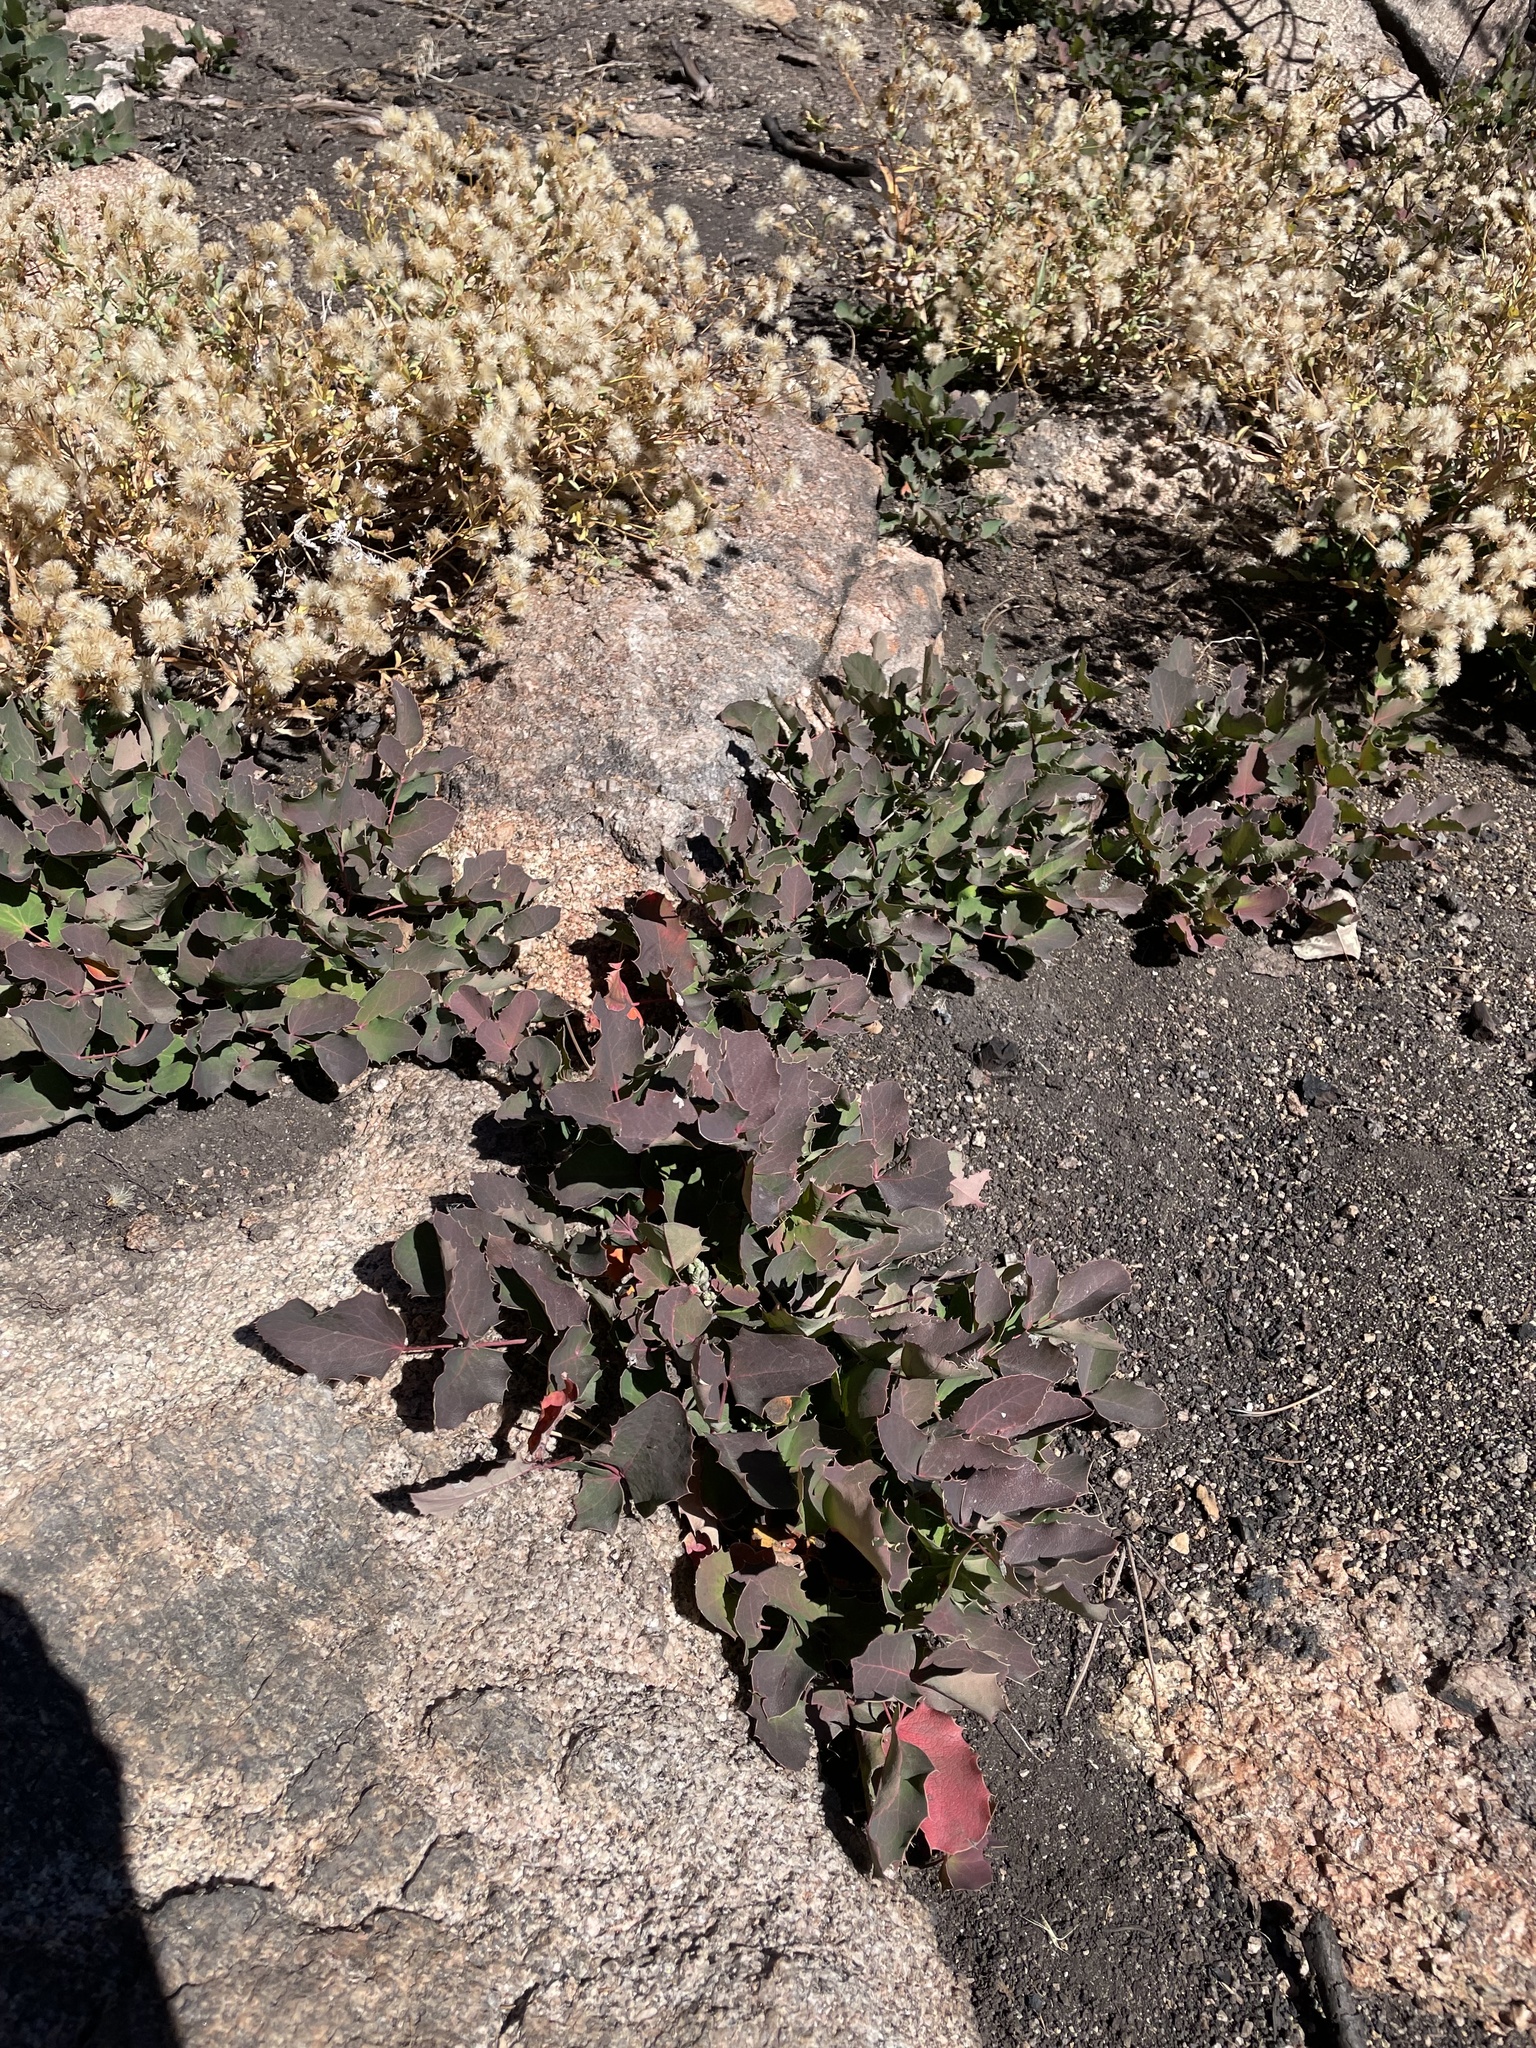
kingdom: Plantae
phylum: Tracheophyta
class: Magnoliopsida
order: Ranunculales
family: Berberidaceae
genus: Mahonia
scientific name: Mahonia repens
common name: Creeping oregon-grape
